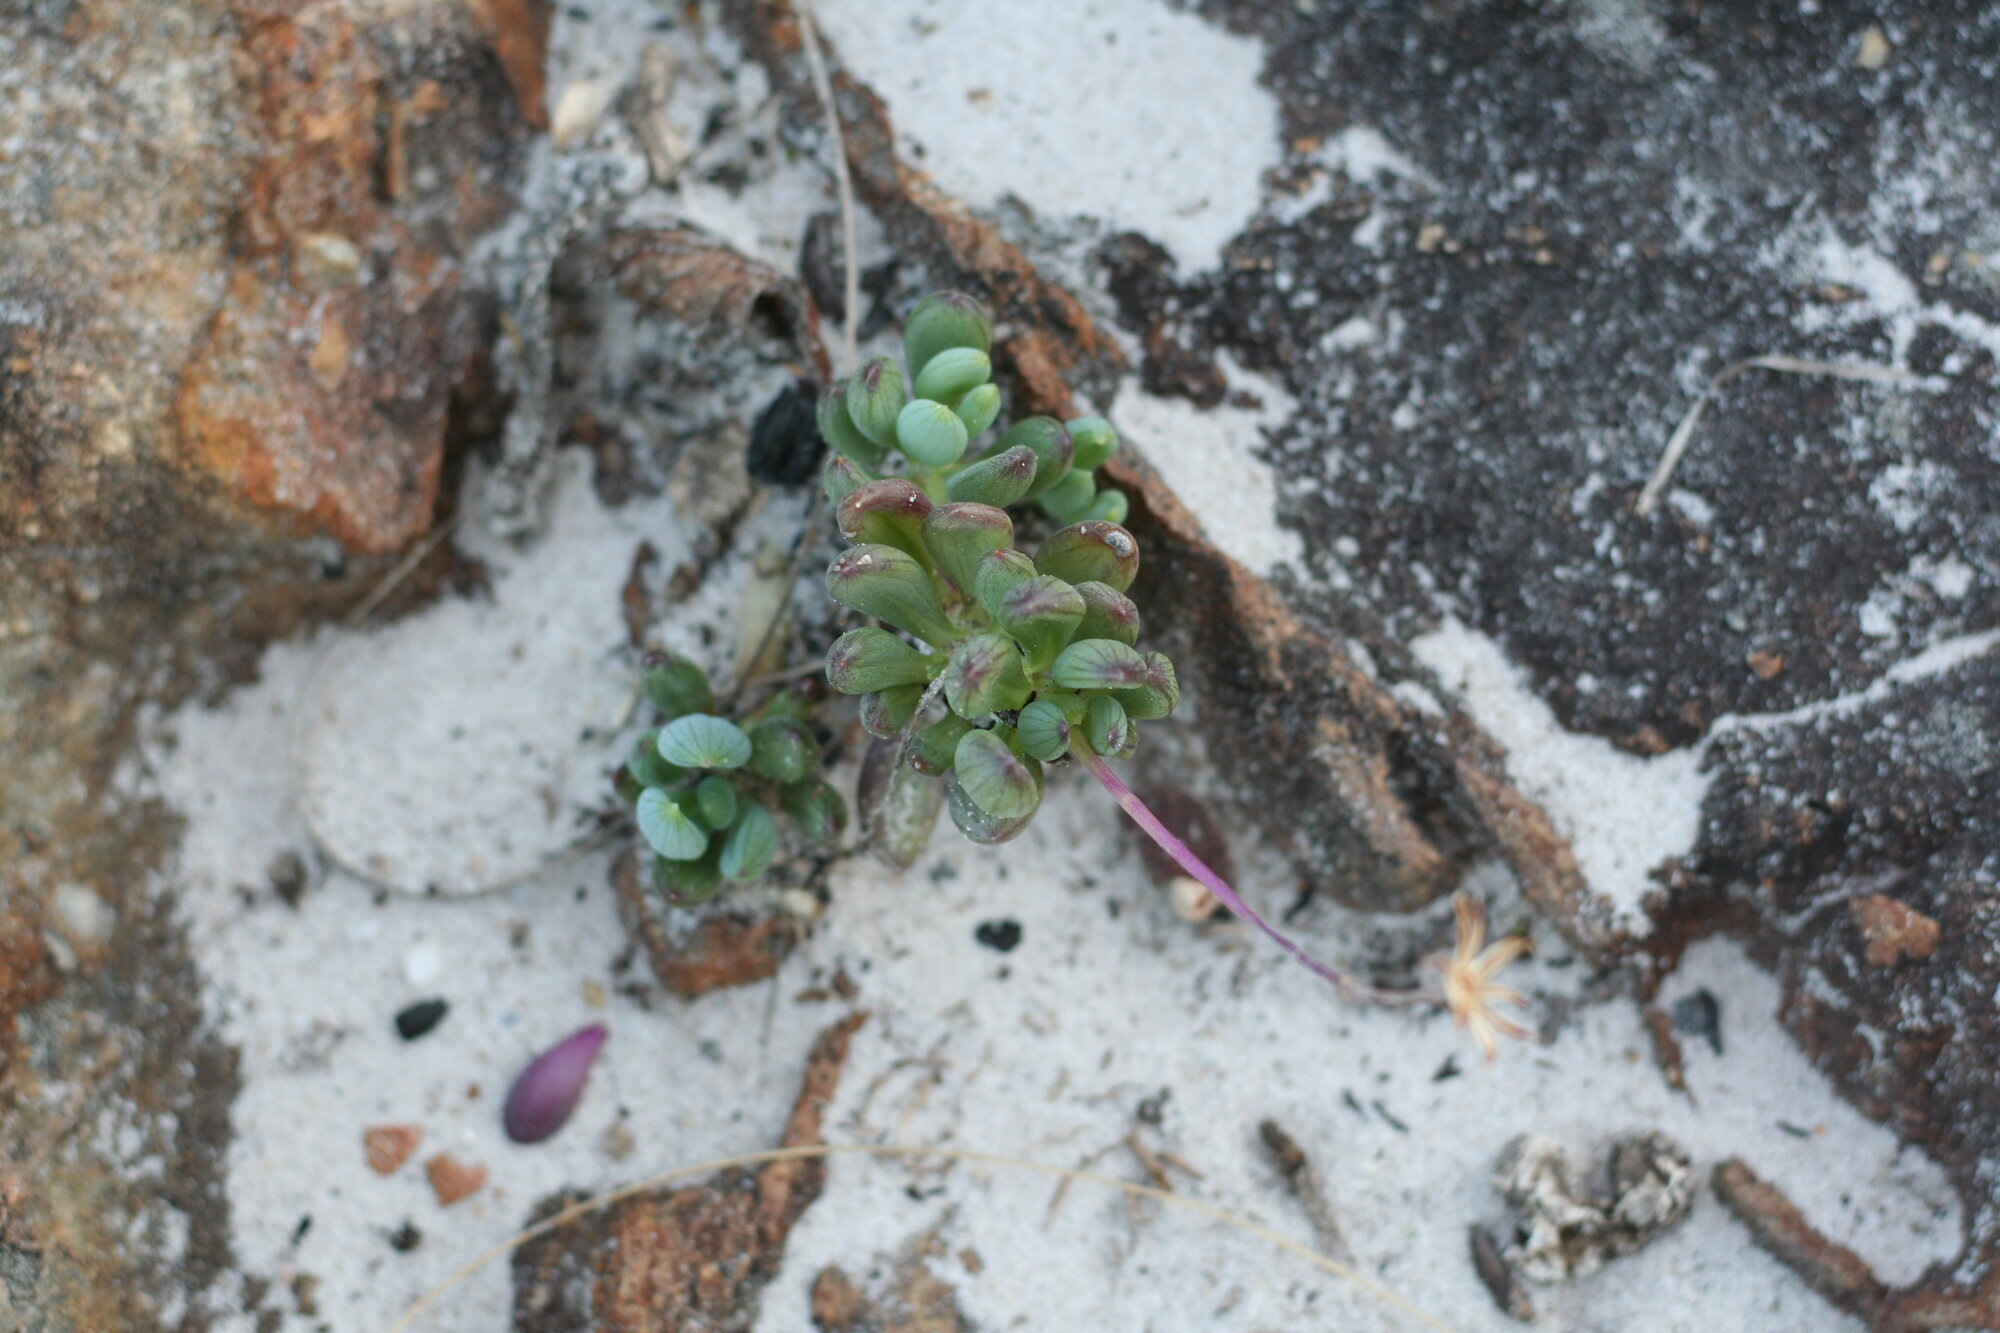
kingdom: Plantae
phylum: Tracheophyta
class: Magnoliopsida
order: Asterales
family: Asteraceae
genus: Curio
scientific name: Curio crassulifolius
